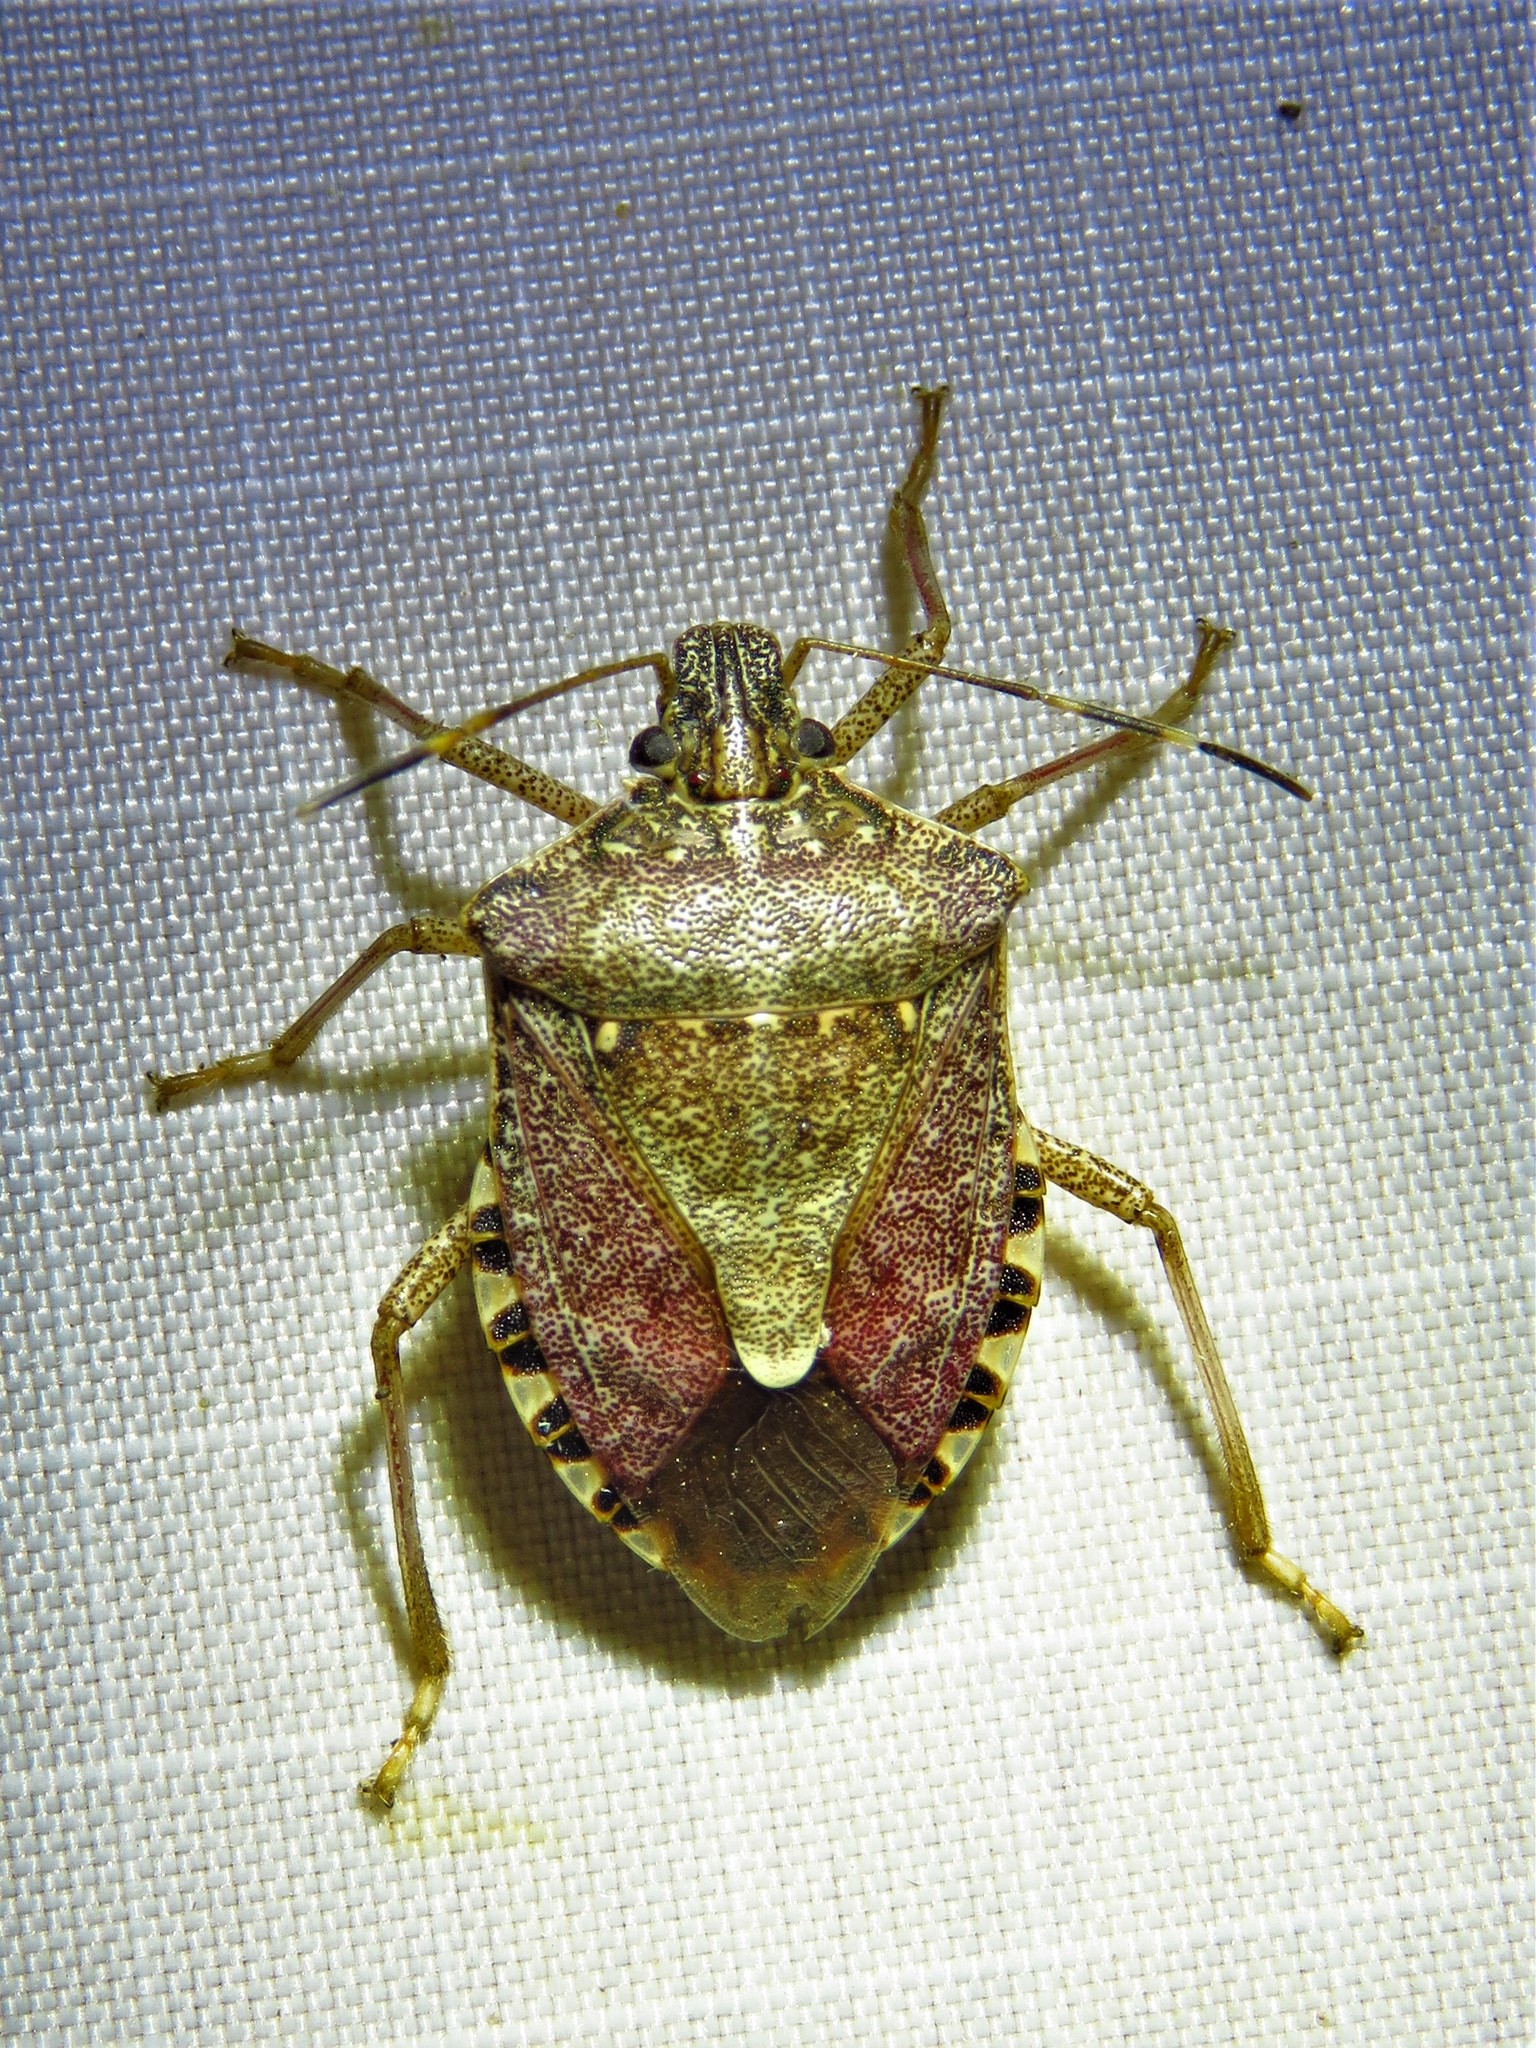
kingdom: Animalia
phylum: Arthropoda
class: Insecta
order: Hemiptera
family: Pentatomidae
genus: Halyomorpha
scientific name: Halyomorpha halys
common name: Brown marmorated stink bug
